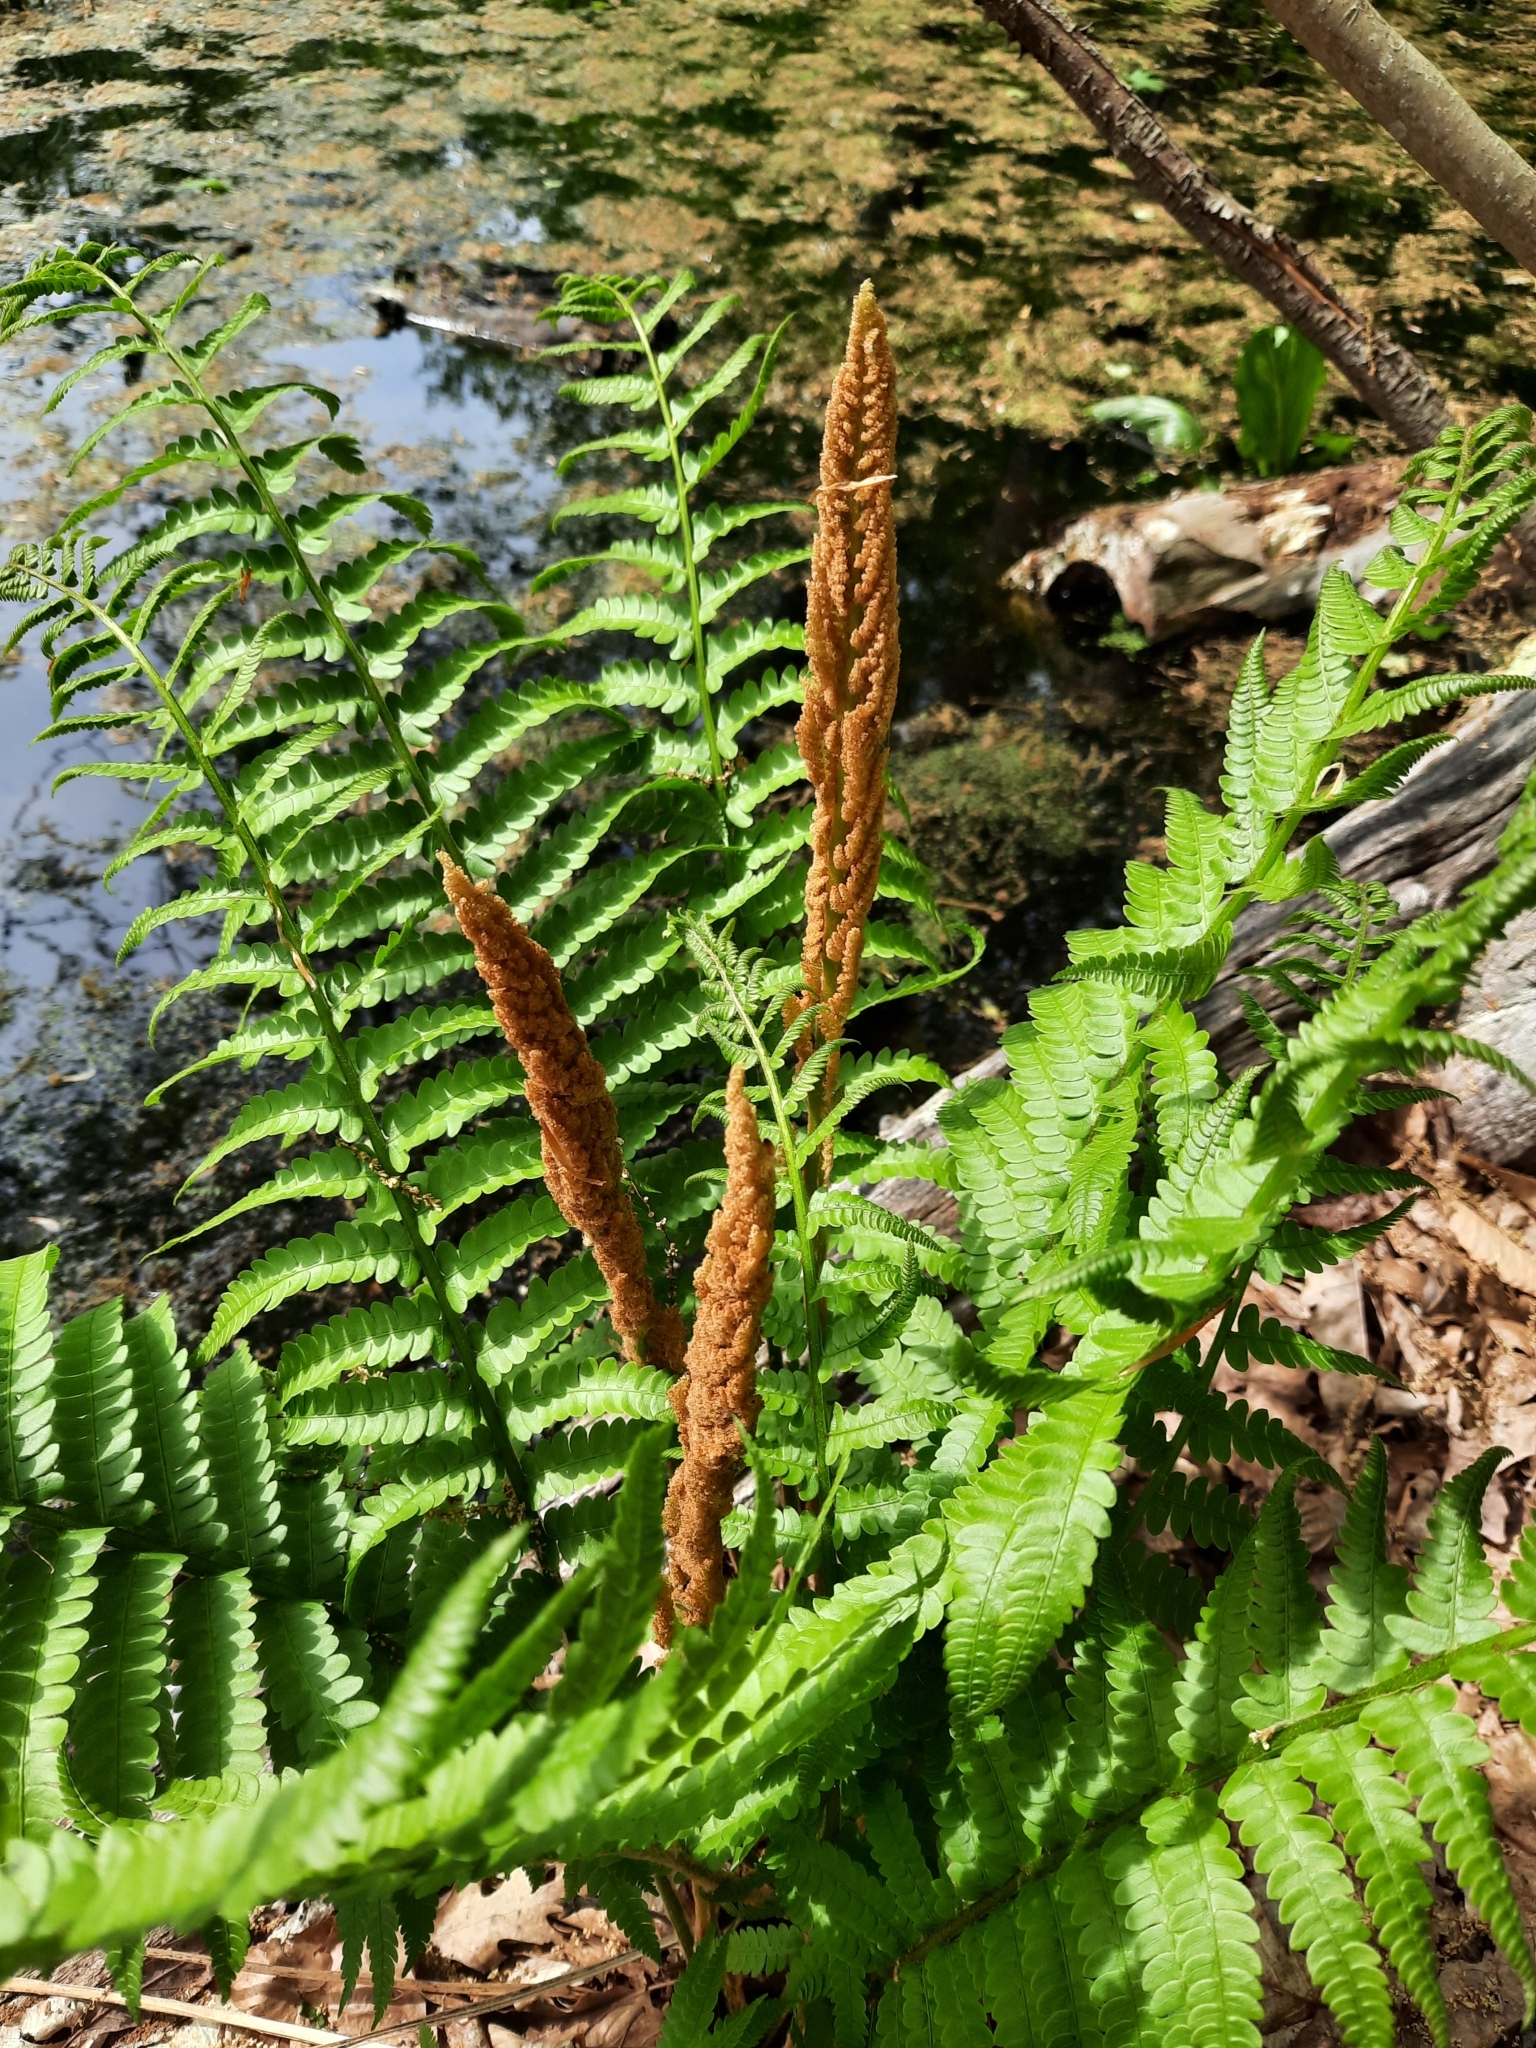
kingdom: Plantae
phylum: Tracheophyta
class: Polypodiopsida
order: Osmundales
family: Osmundaceae
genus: Osmundastrum
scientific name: Osmundastrum cinnamomeum
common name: Cinnamon fern
